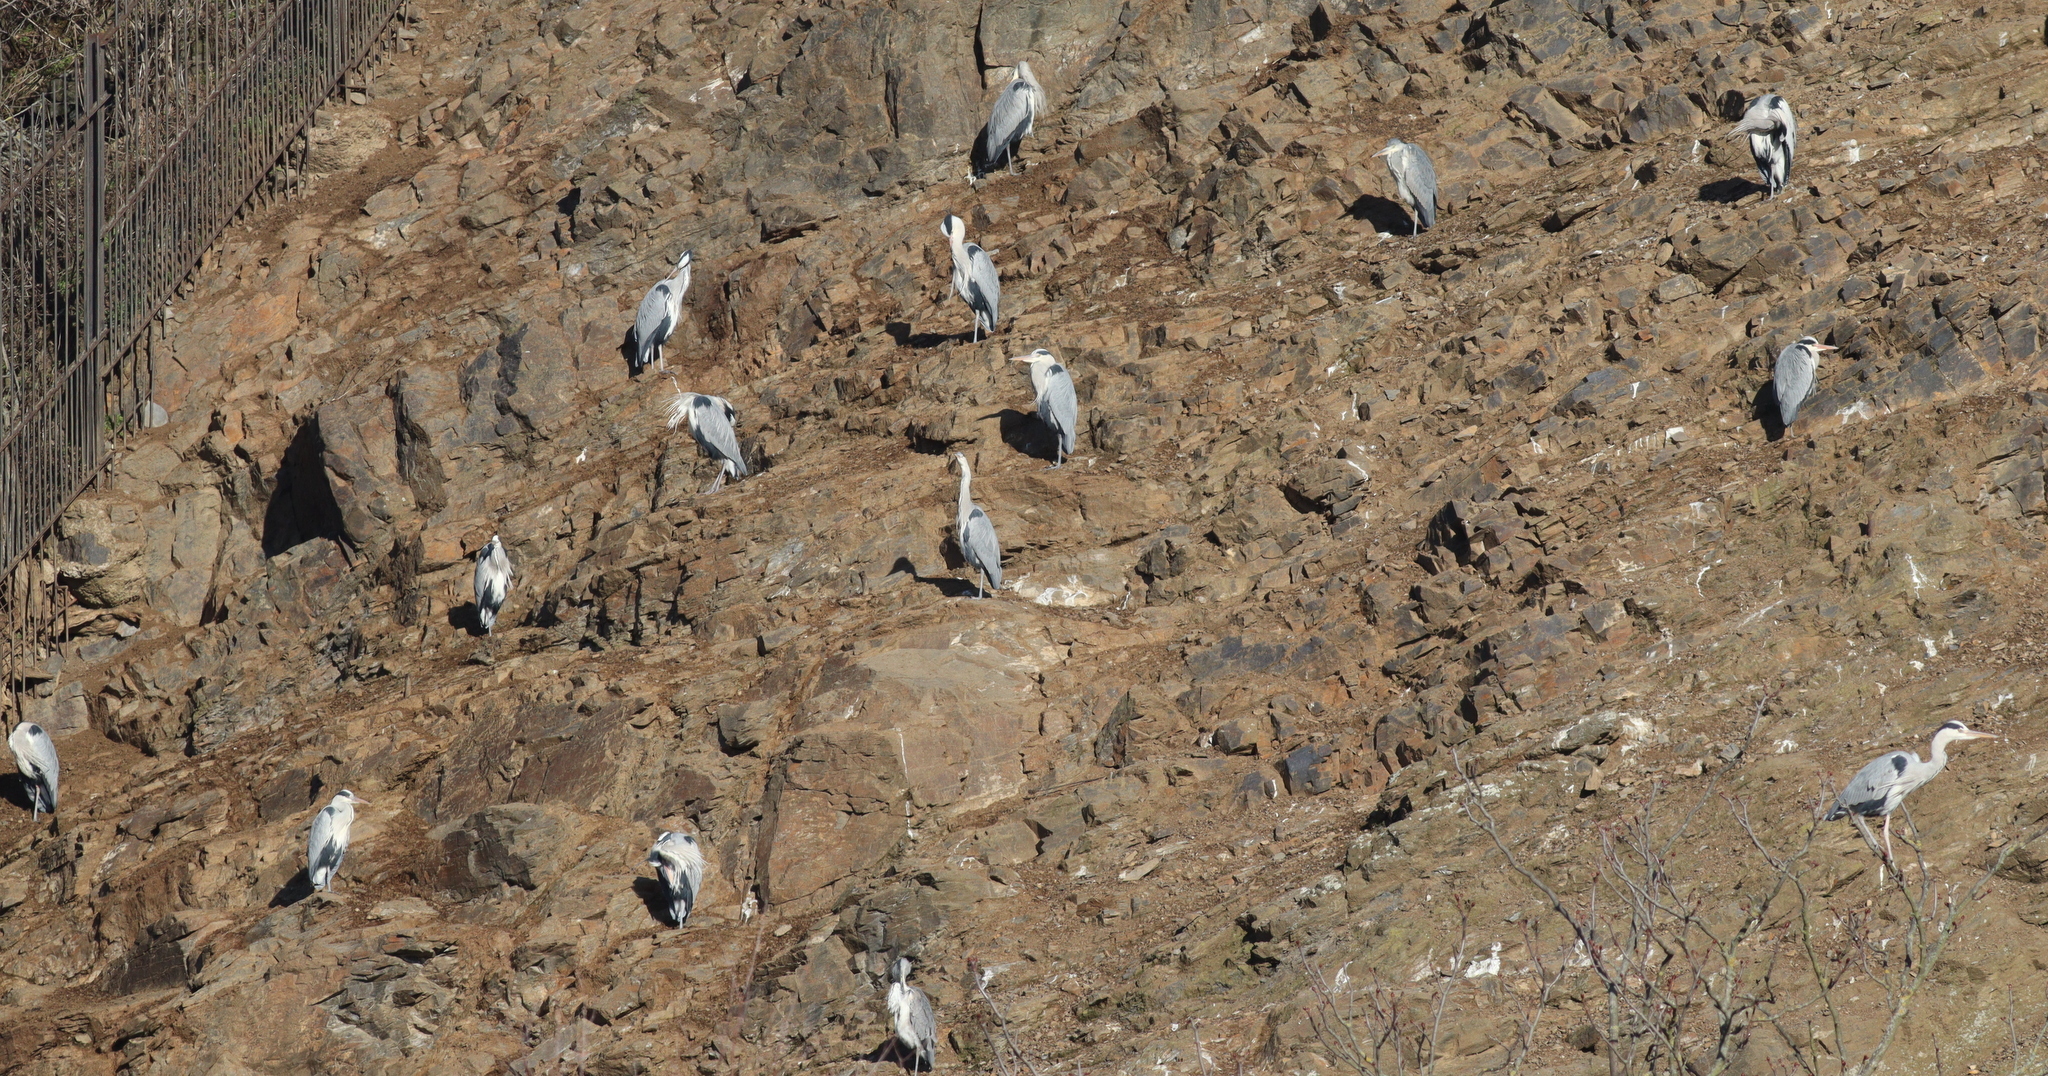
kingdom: Animalia
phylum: Chordata
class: Aves
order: Pelecaniformes
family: Ardeidae
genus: Ardea
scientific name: Ardea cinerea
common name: Grey heron
